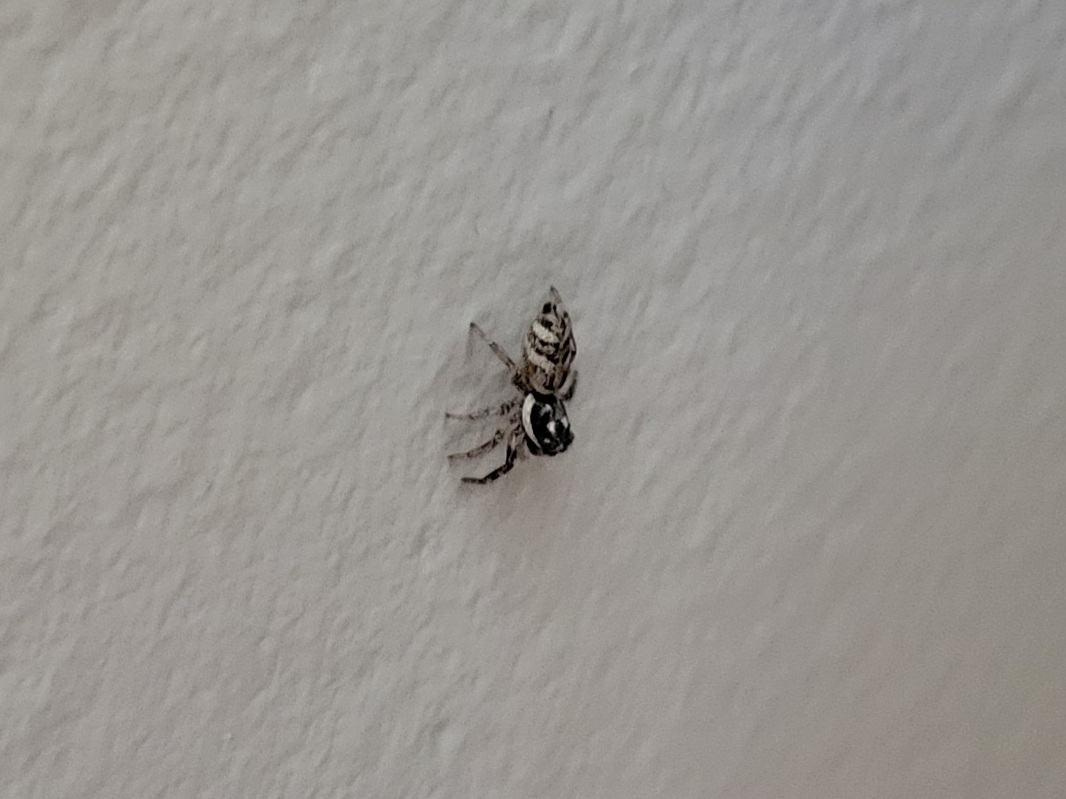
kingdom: Animalia
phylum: Arthropoda
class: Arachnida
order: Araneae
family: Salticidae
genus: Salticus
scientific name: Salticus scenicus
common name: Zebra jumper
